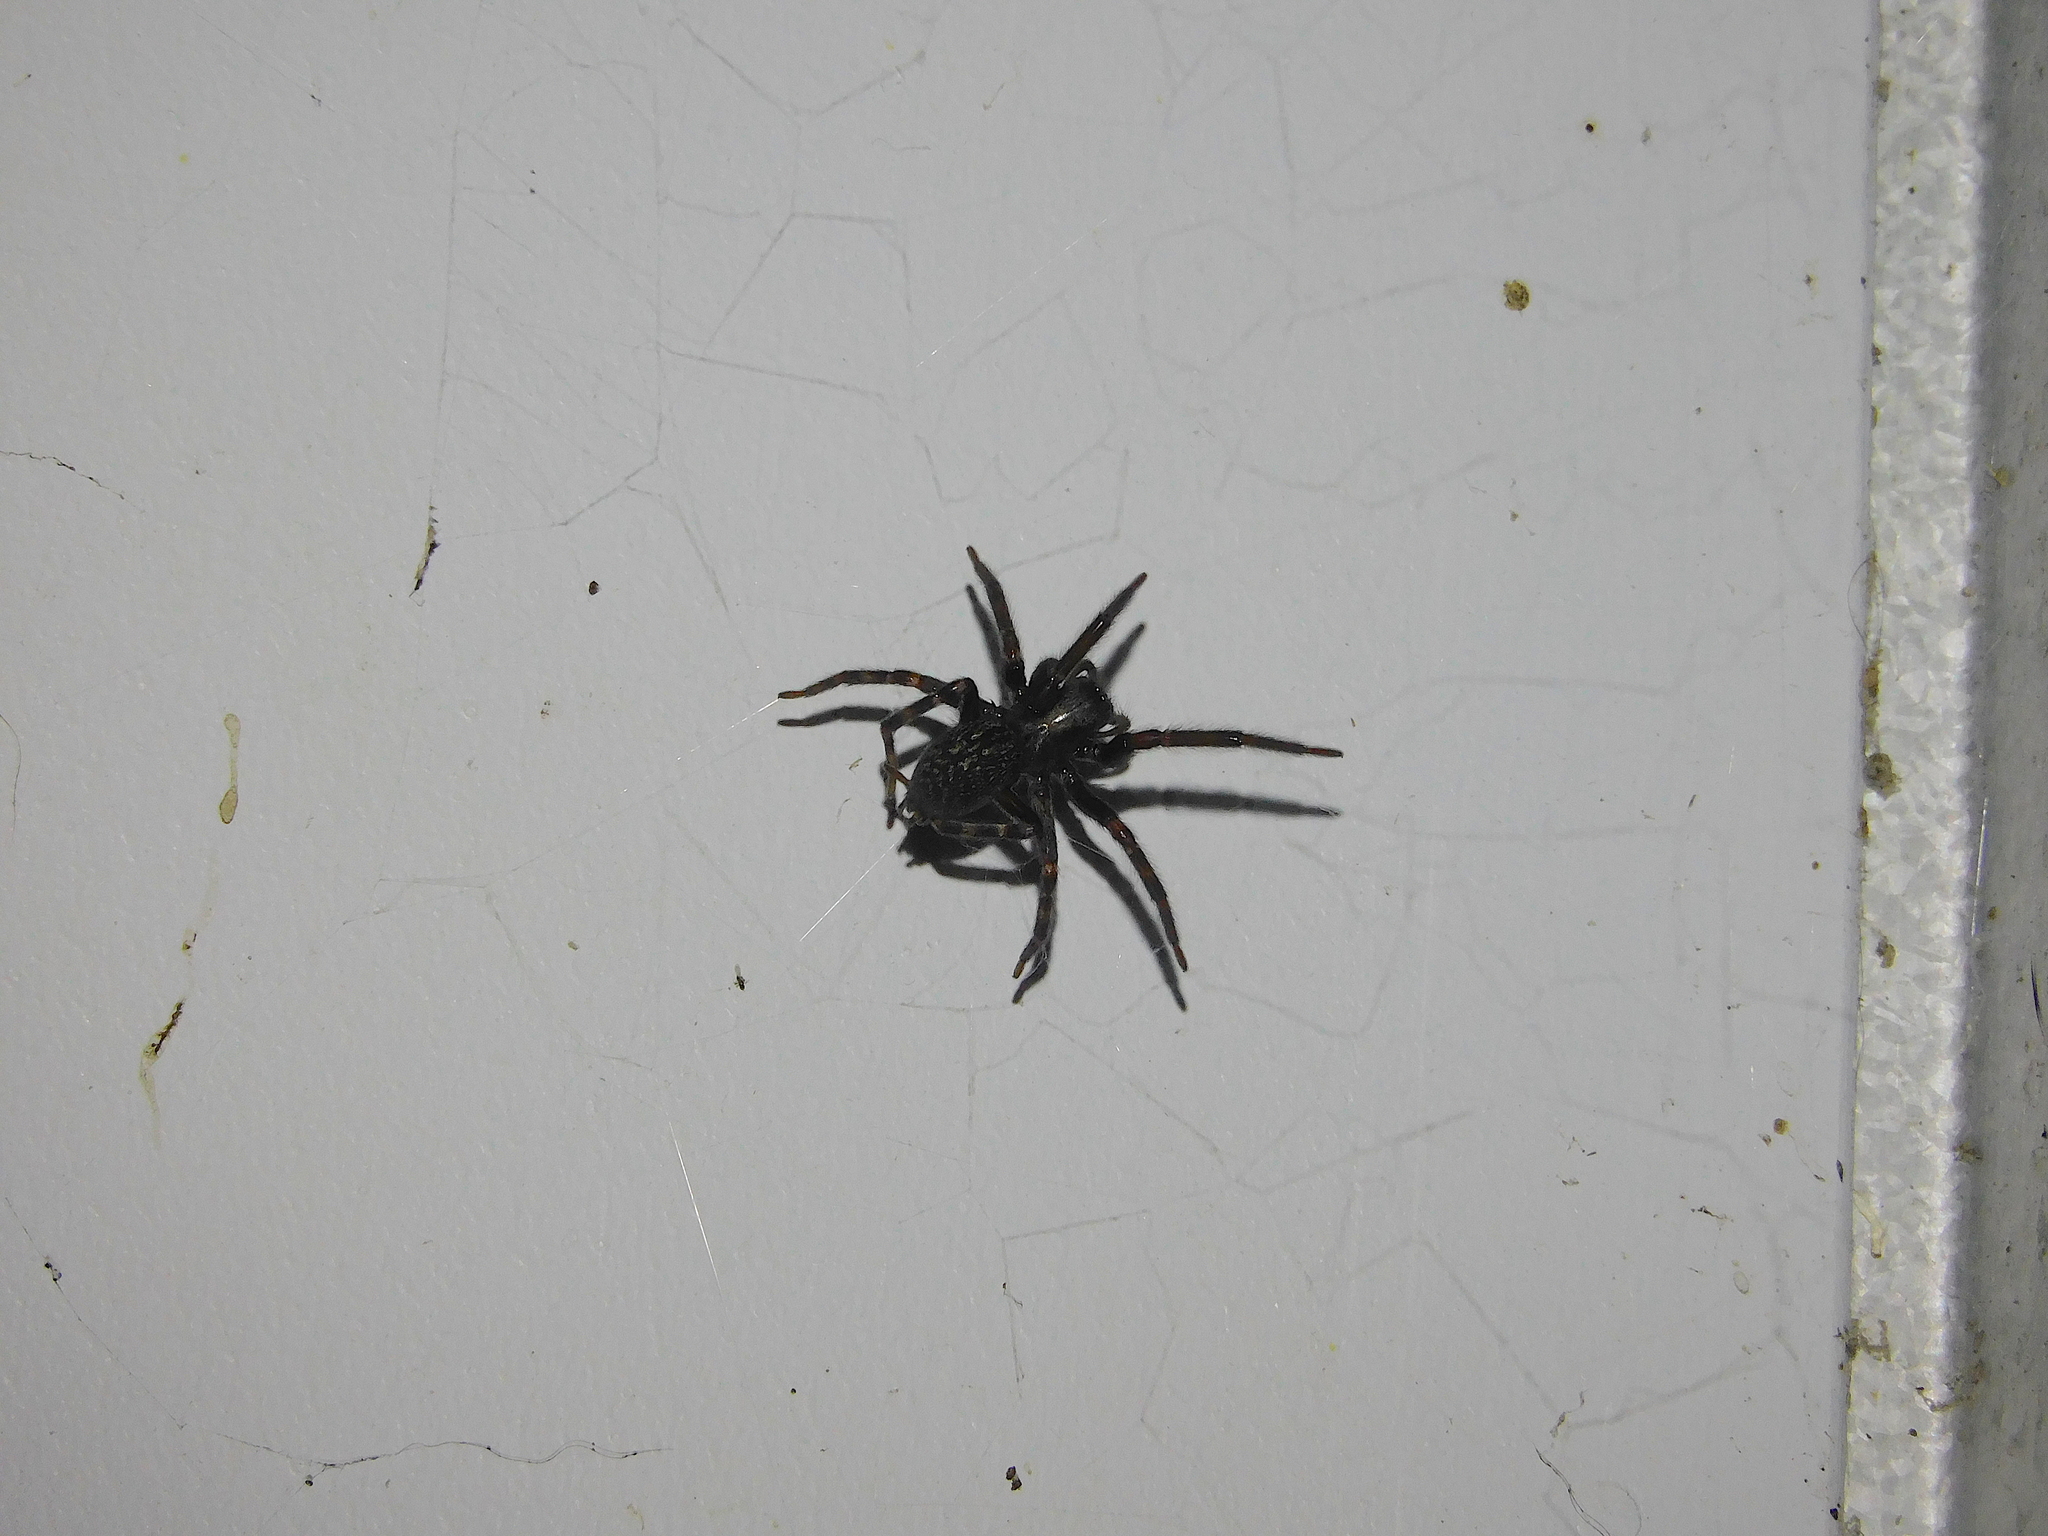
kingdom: Animalia
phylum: Arthropoda
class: Arachnida
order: Araneae
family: Desidae
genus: Badumna
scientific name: Badumna insignis
